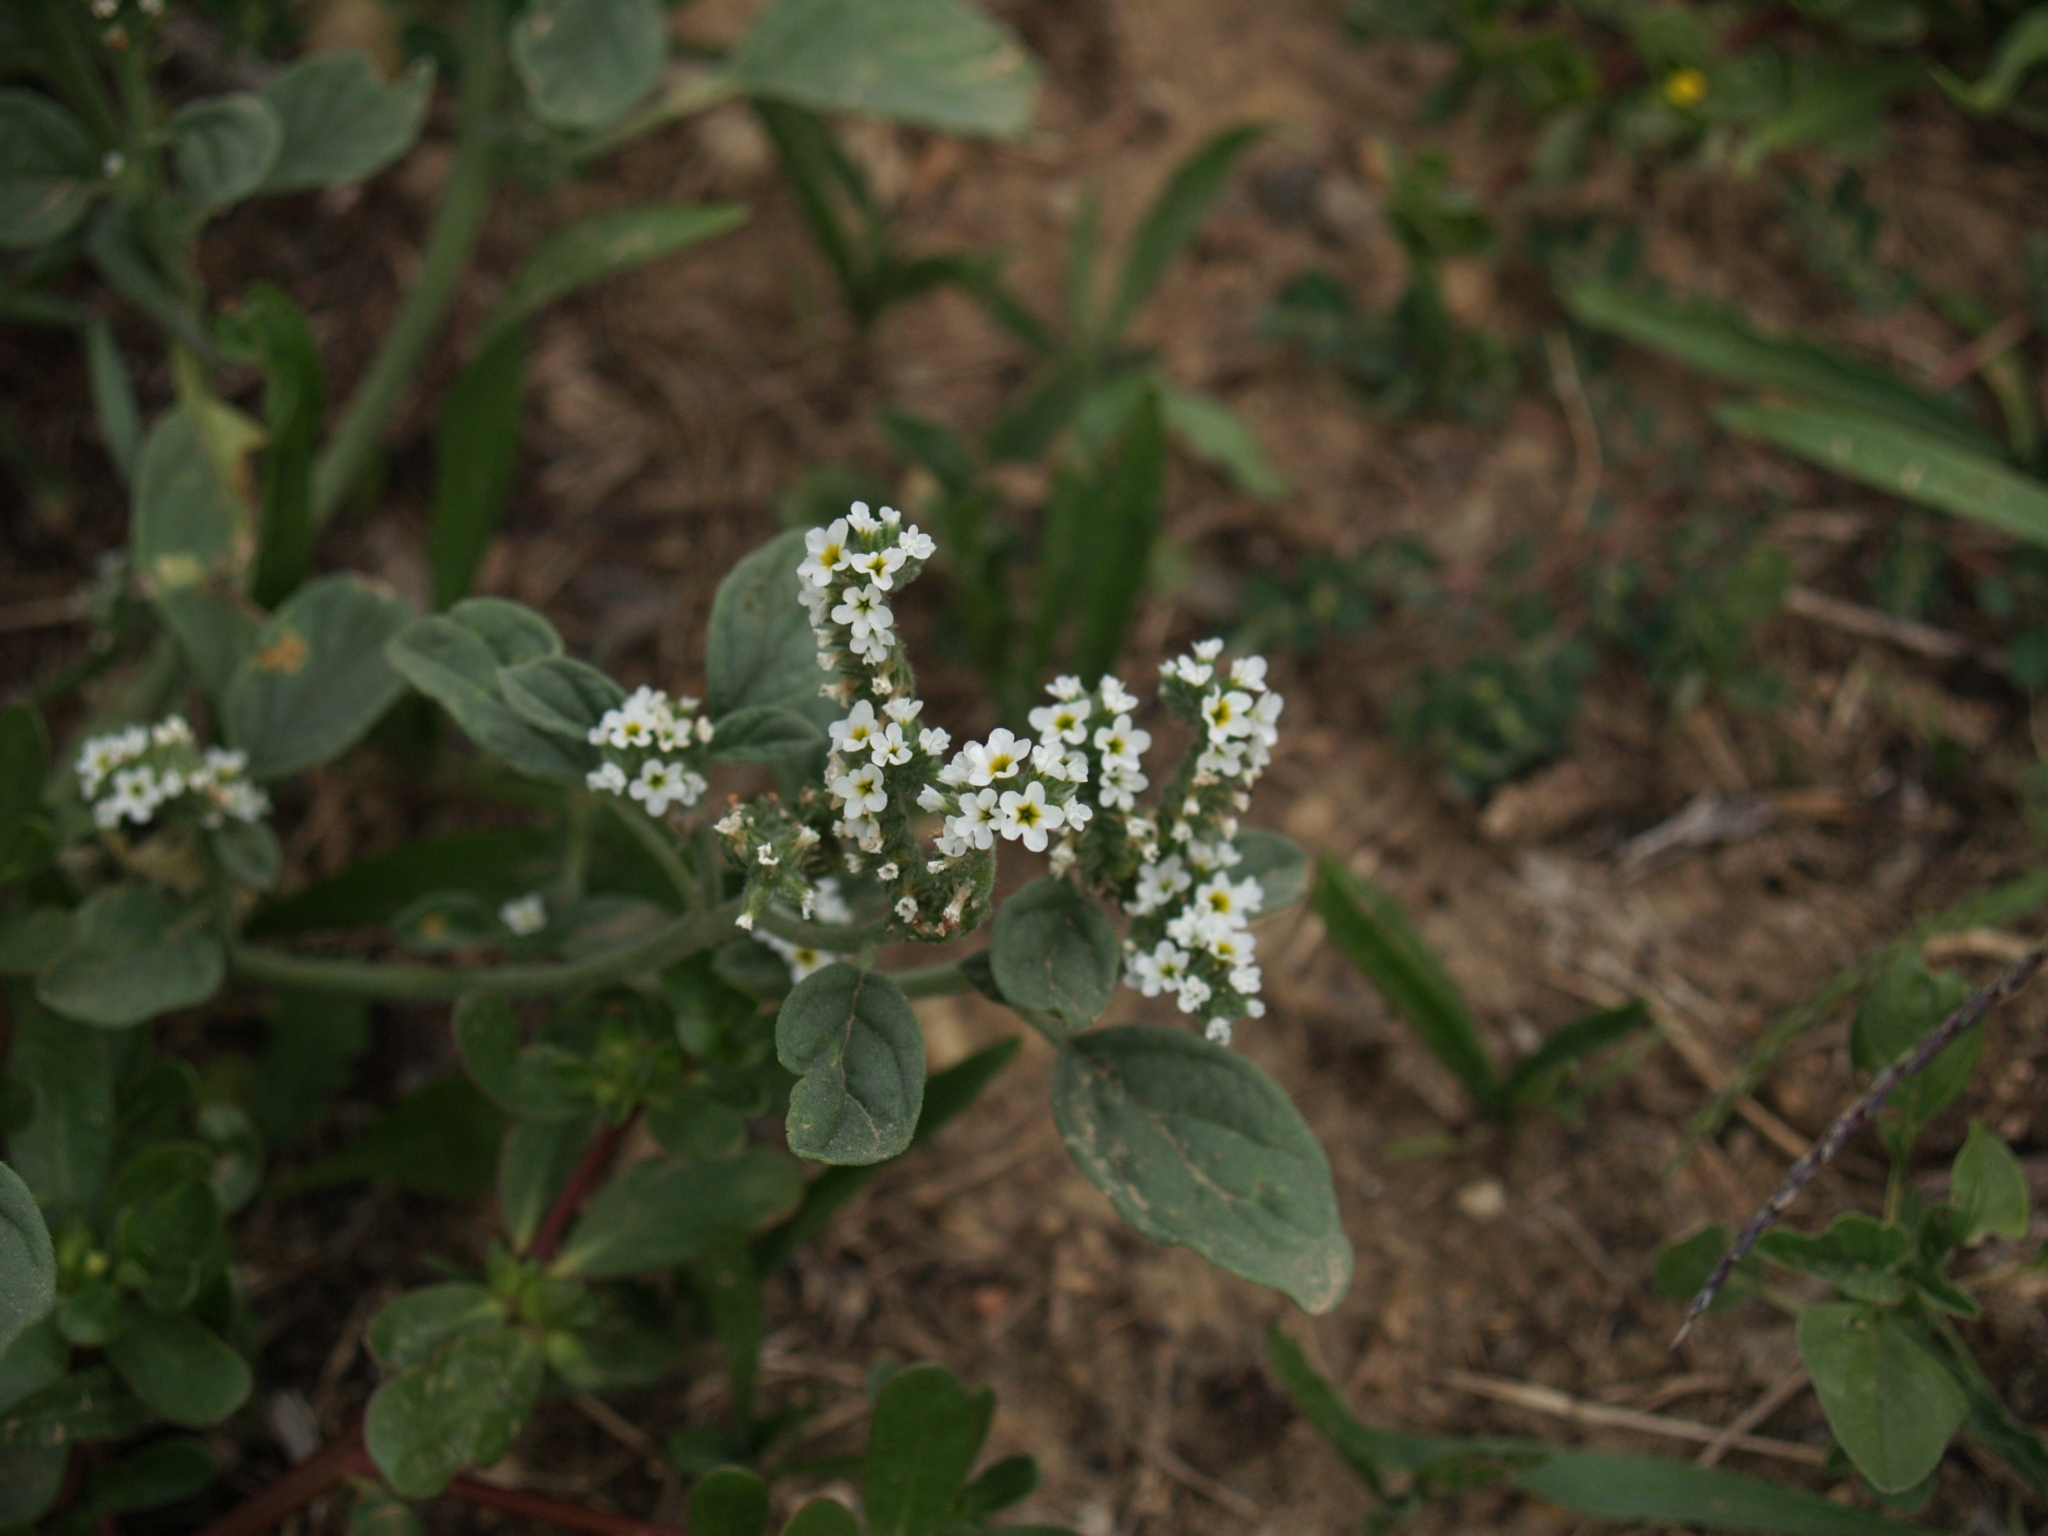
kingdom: Plantae
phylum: Tracheophyta
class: Magnoliopsida
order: Boraginales
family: Heliotropiaceae
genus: Heliotropium
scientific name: Heliotropium europaeum
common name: European heliotrope
